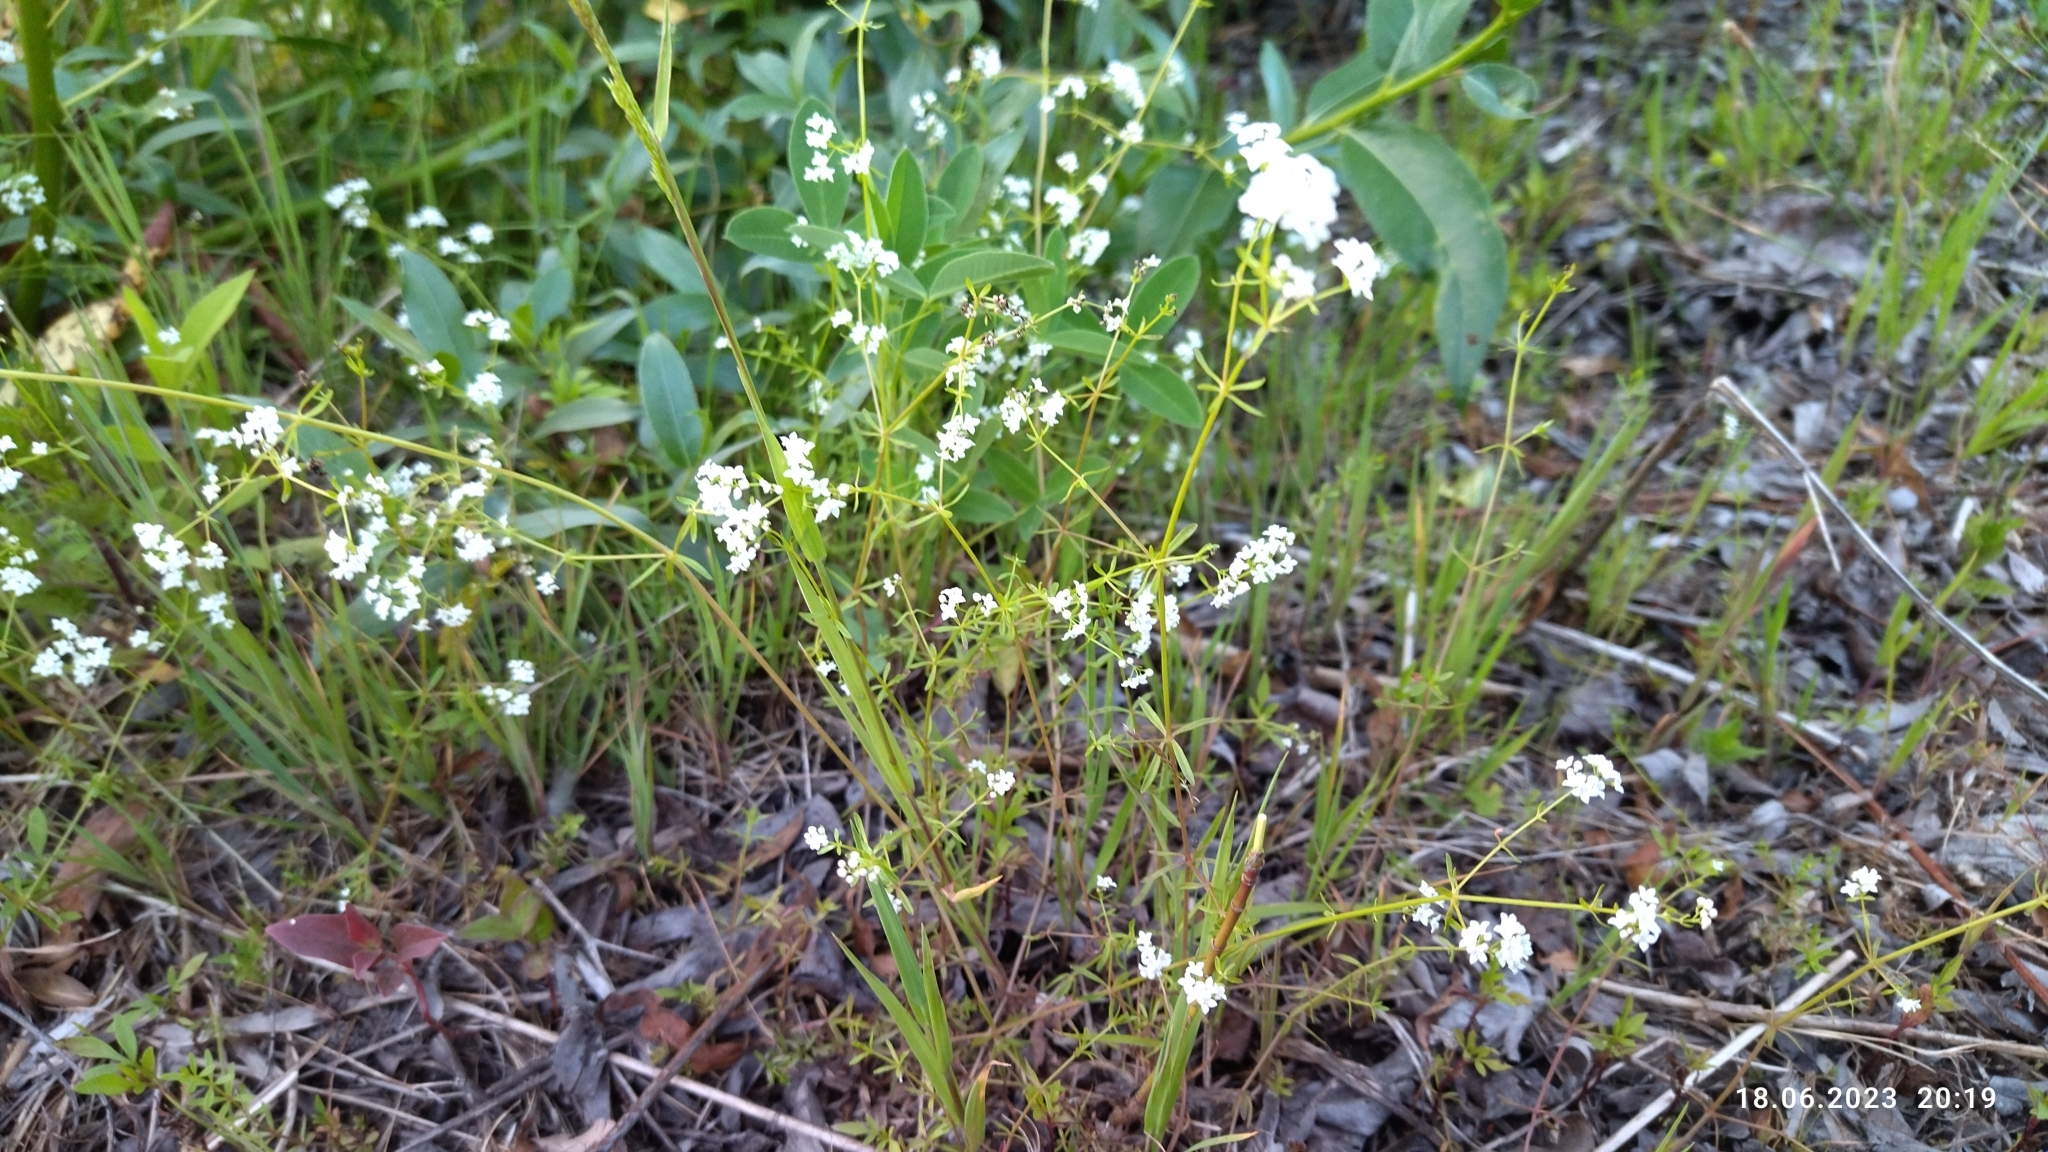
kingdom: Plantae
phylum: Tracheophyta
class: Magnoliopsida
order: Gentianales
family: Rubiaceae
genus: Galium
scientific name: Galium palustre
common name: Common marsh-bedstraw
